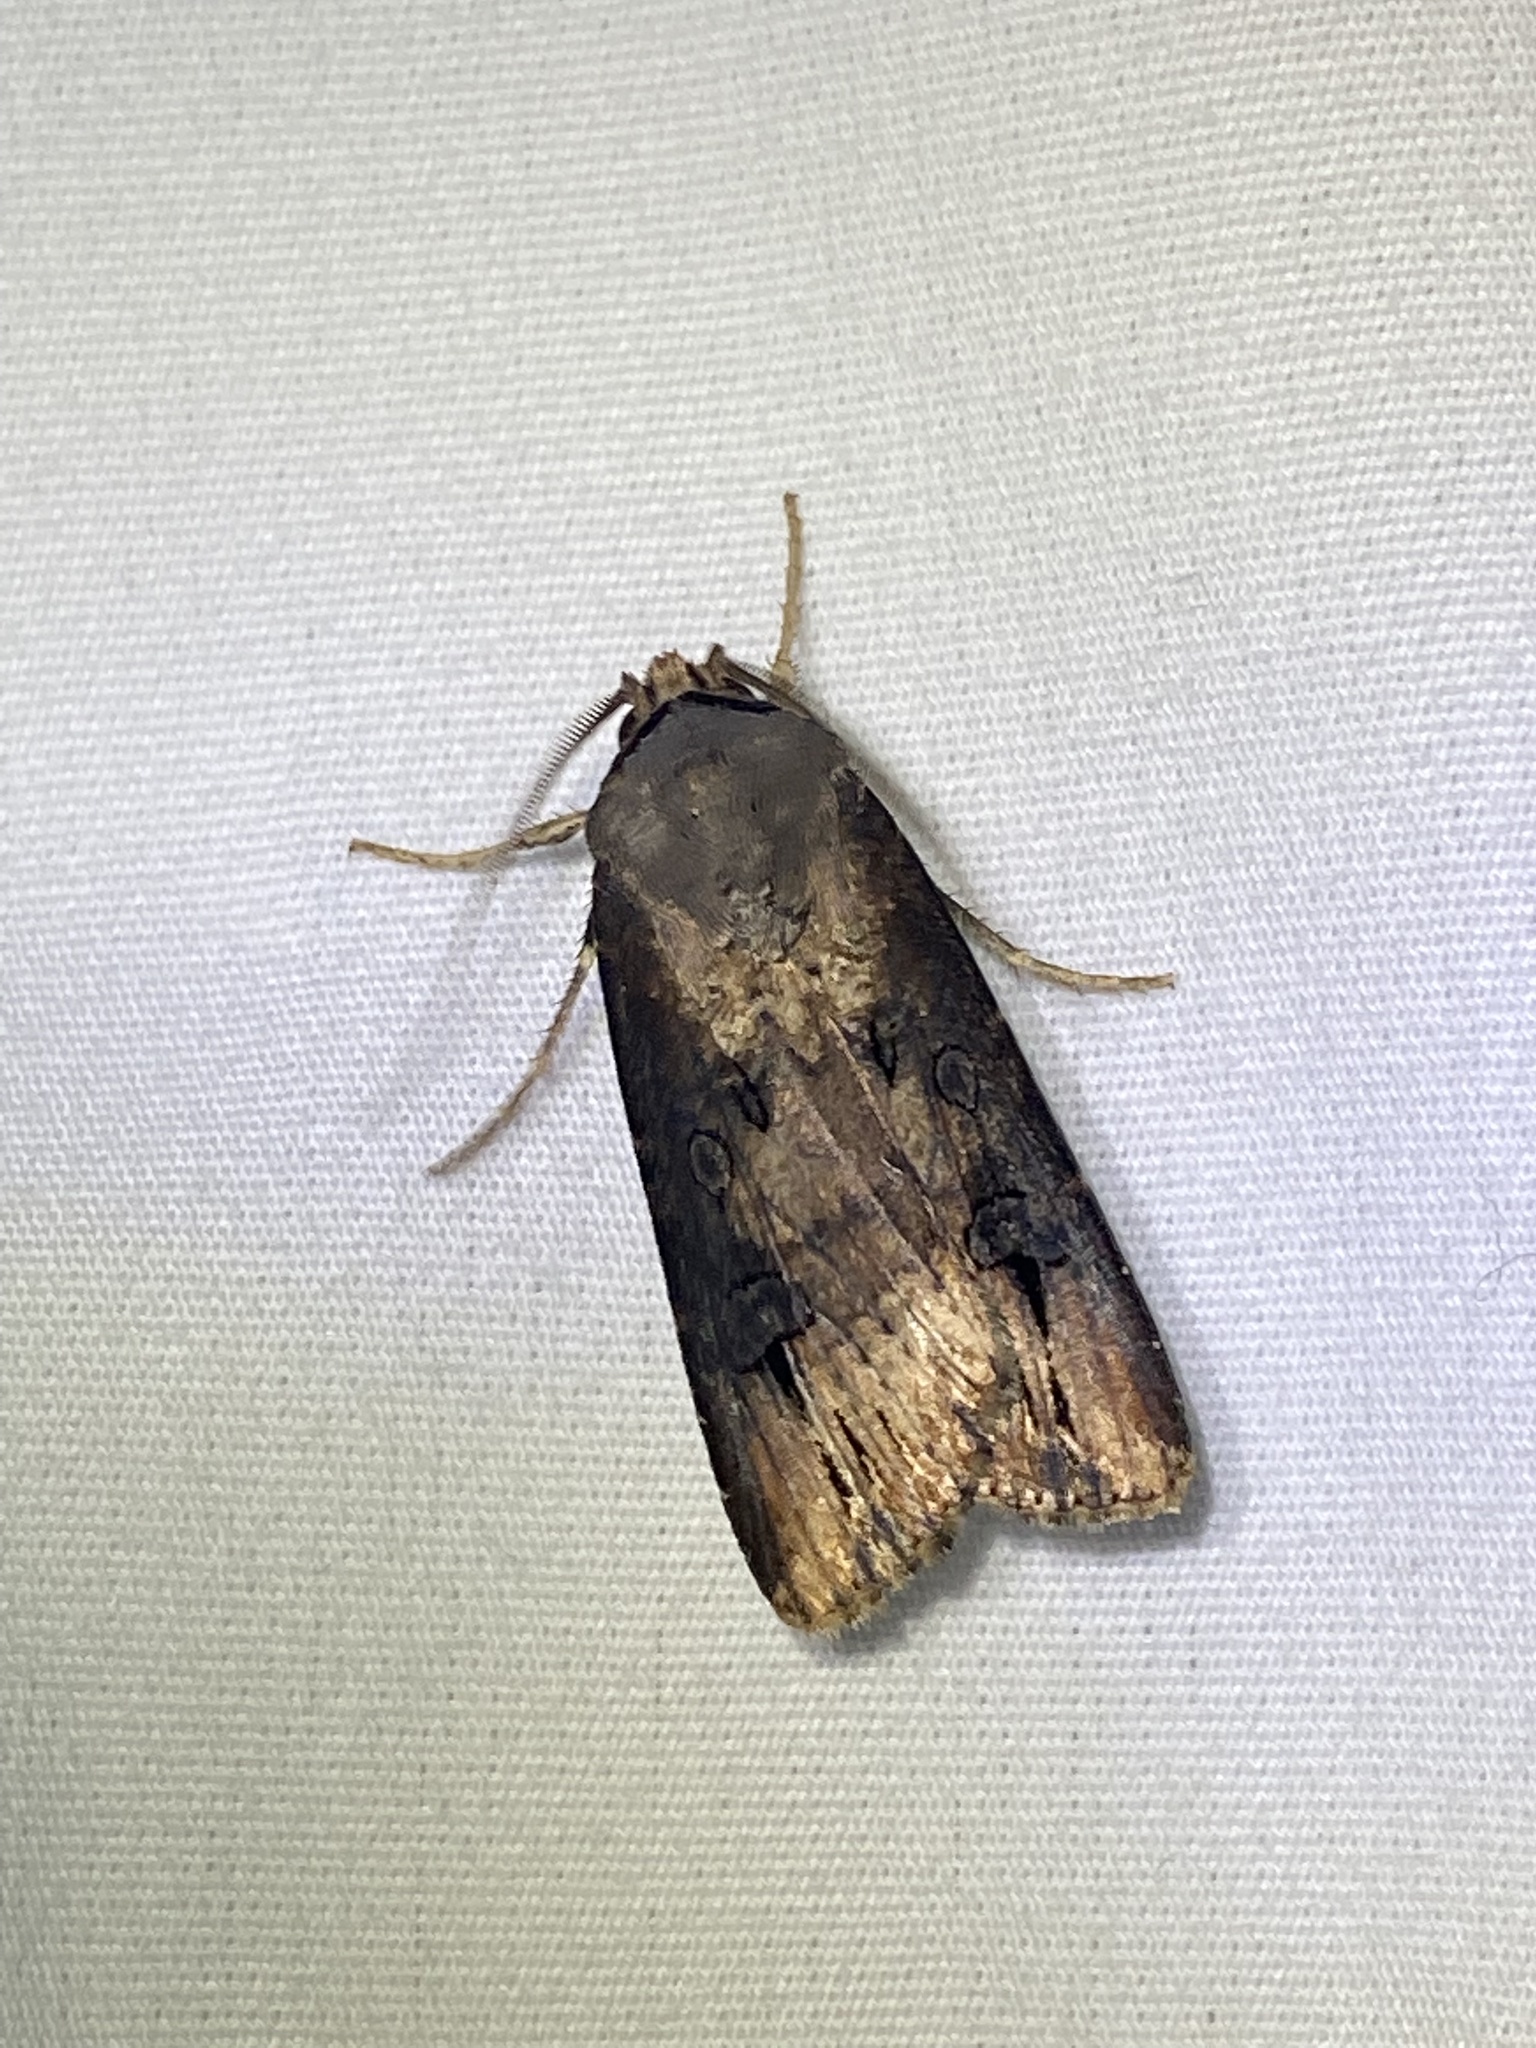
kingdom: Animalia
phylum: Arthropoda
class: Insecta
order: Lepidoptera
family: Noctuidae
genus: Agrotis
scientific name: Agrotis ipsilon
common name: Dark sword-grass
